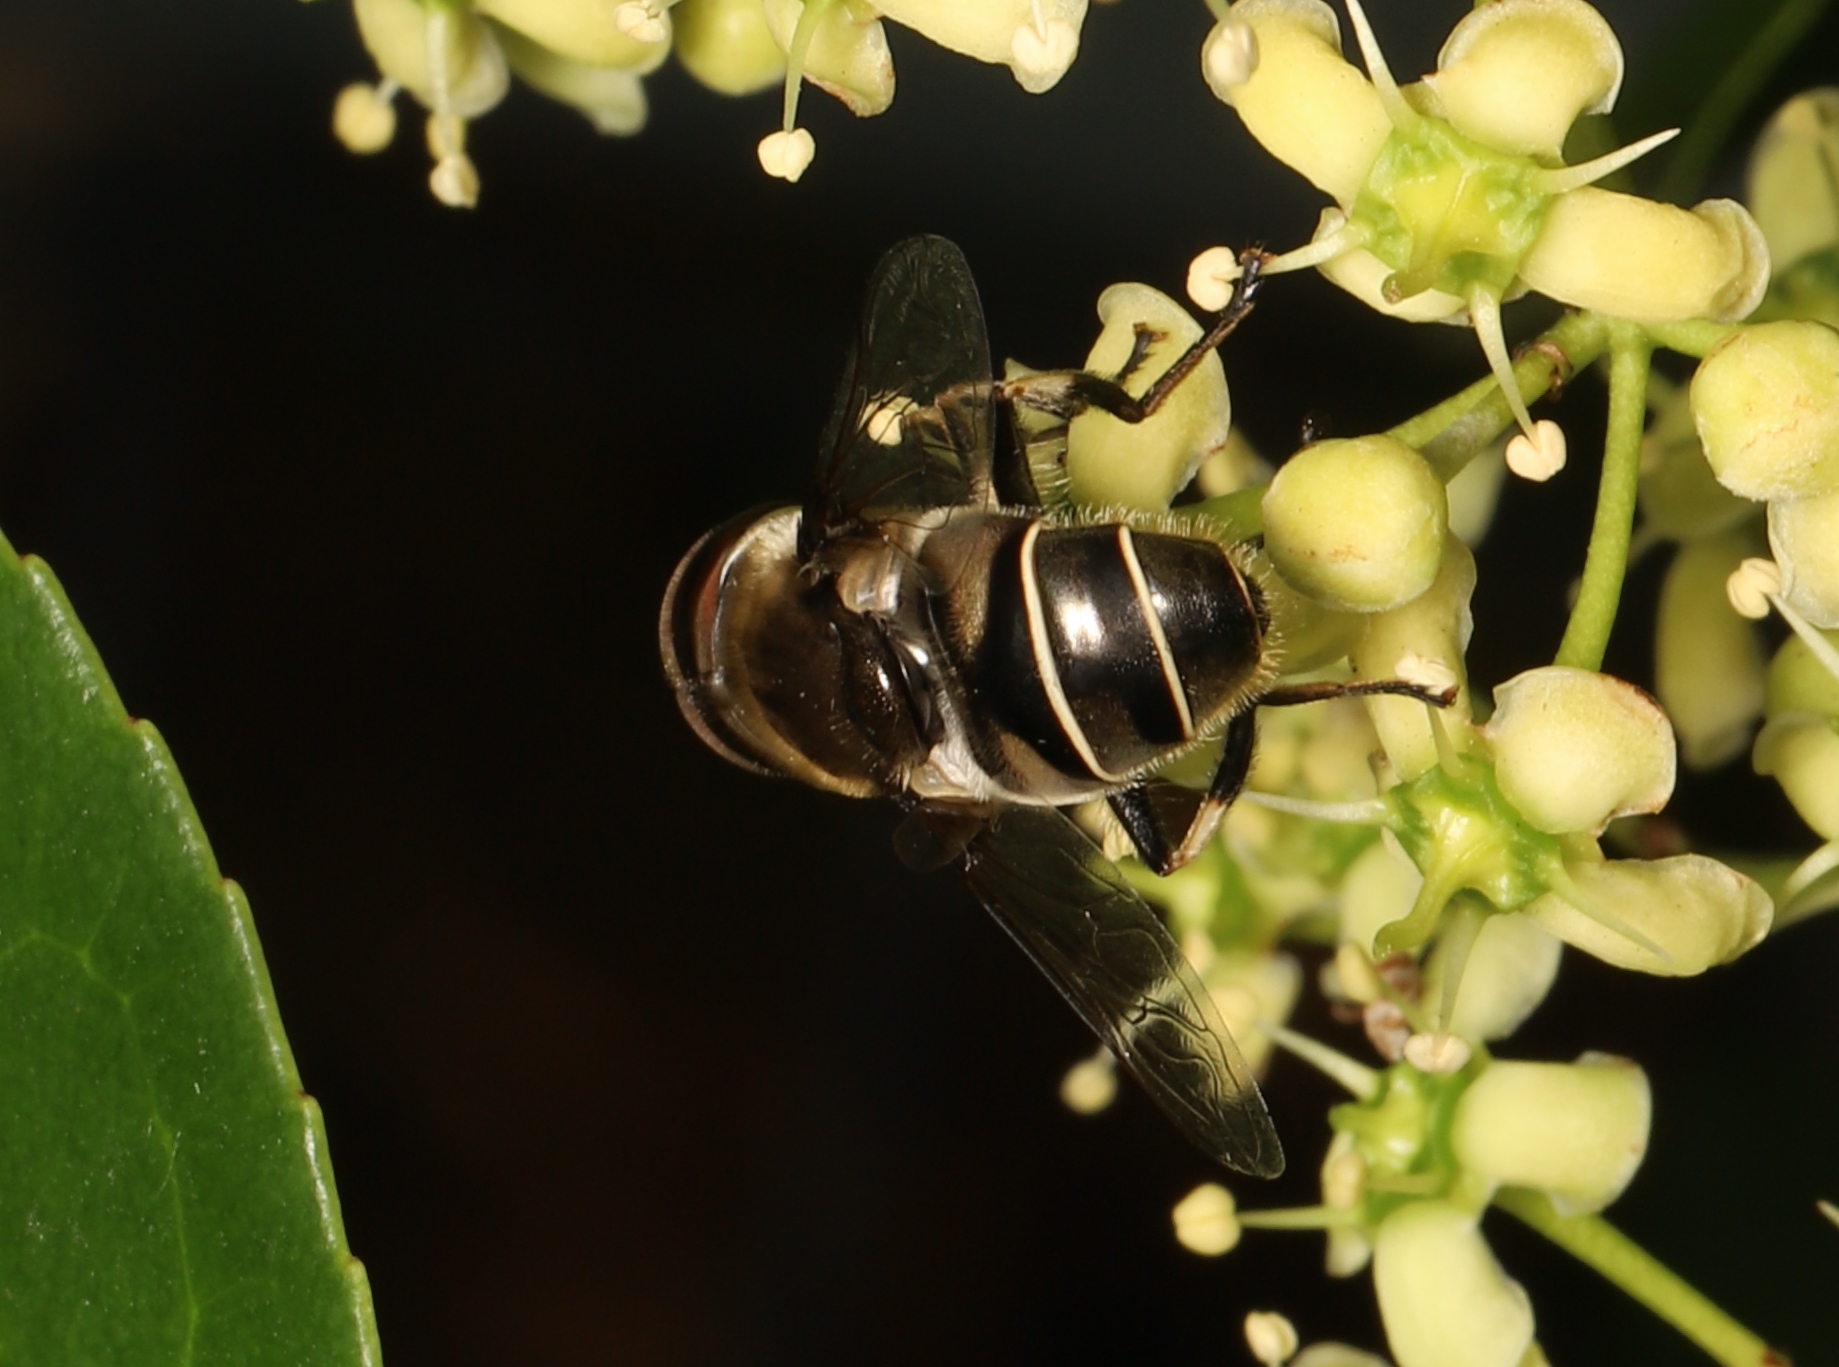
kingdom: Animalia
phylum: Arthropoda
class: Insecta
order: Diptera
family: Syrphidae
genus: Eristalis
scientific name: Eristalis dimidiata
